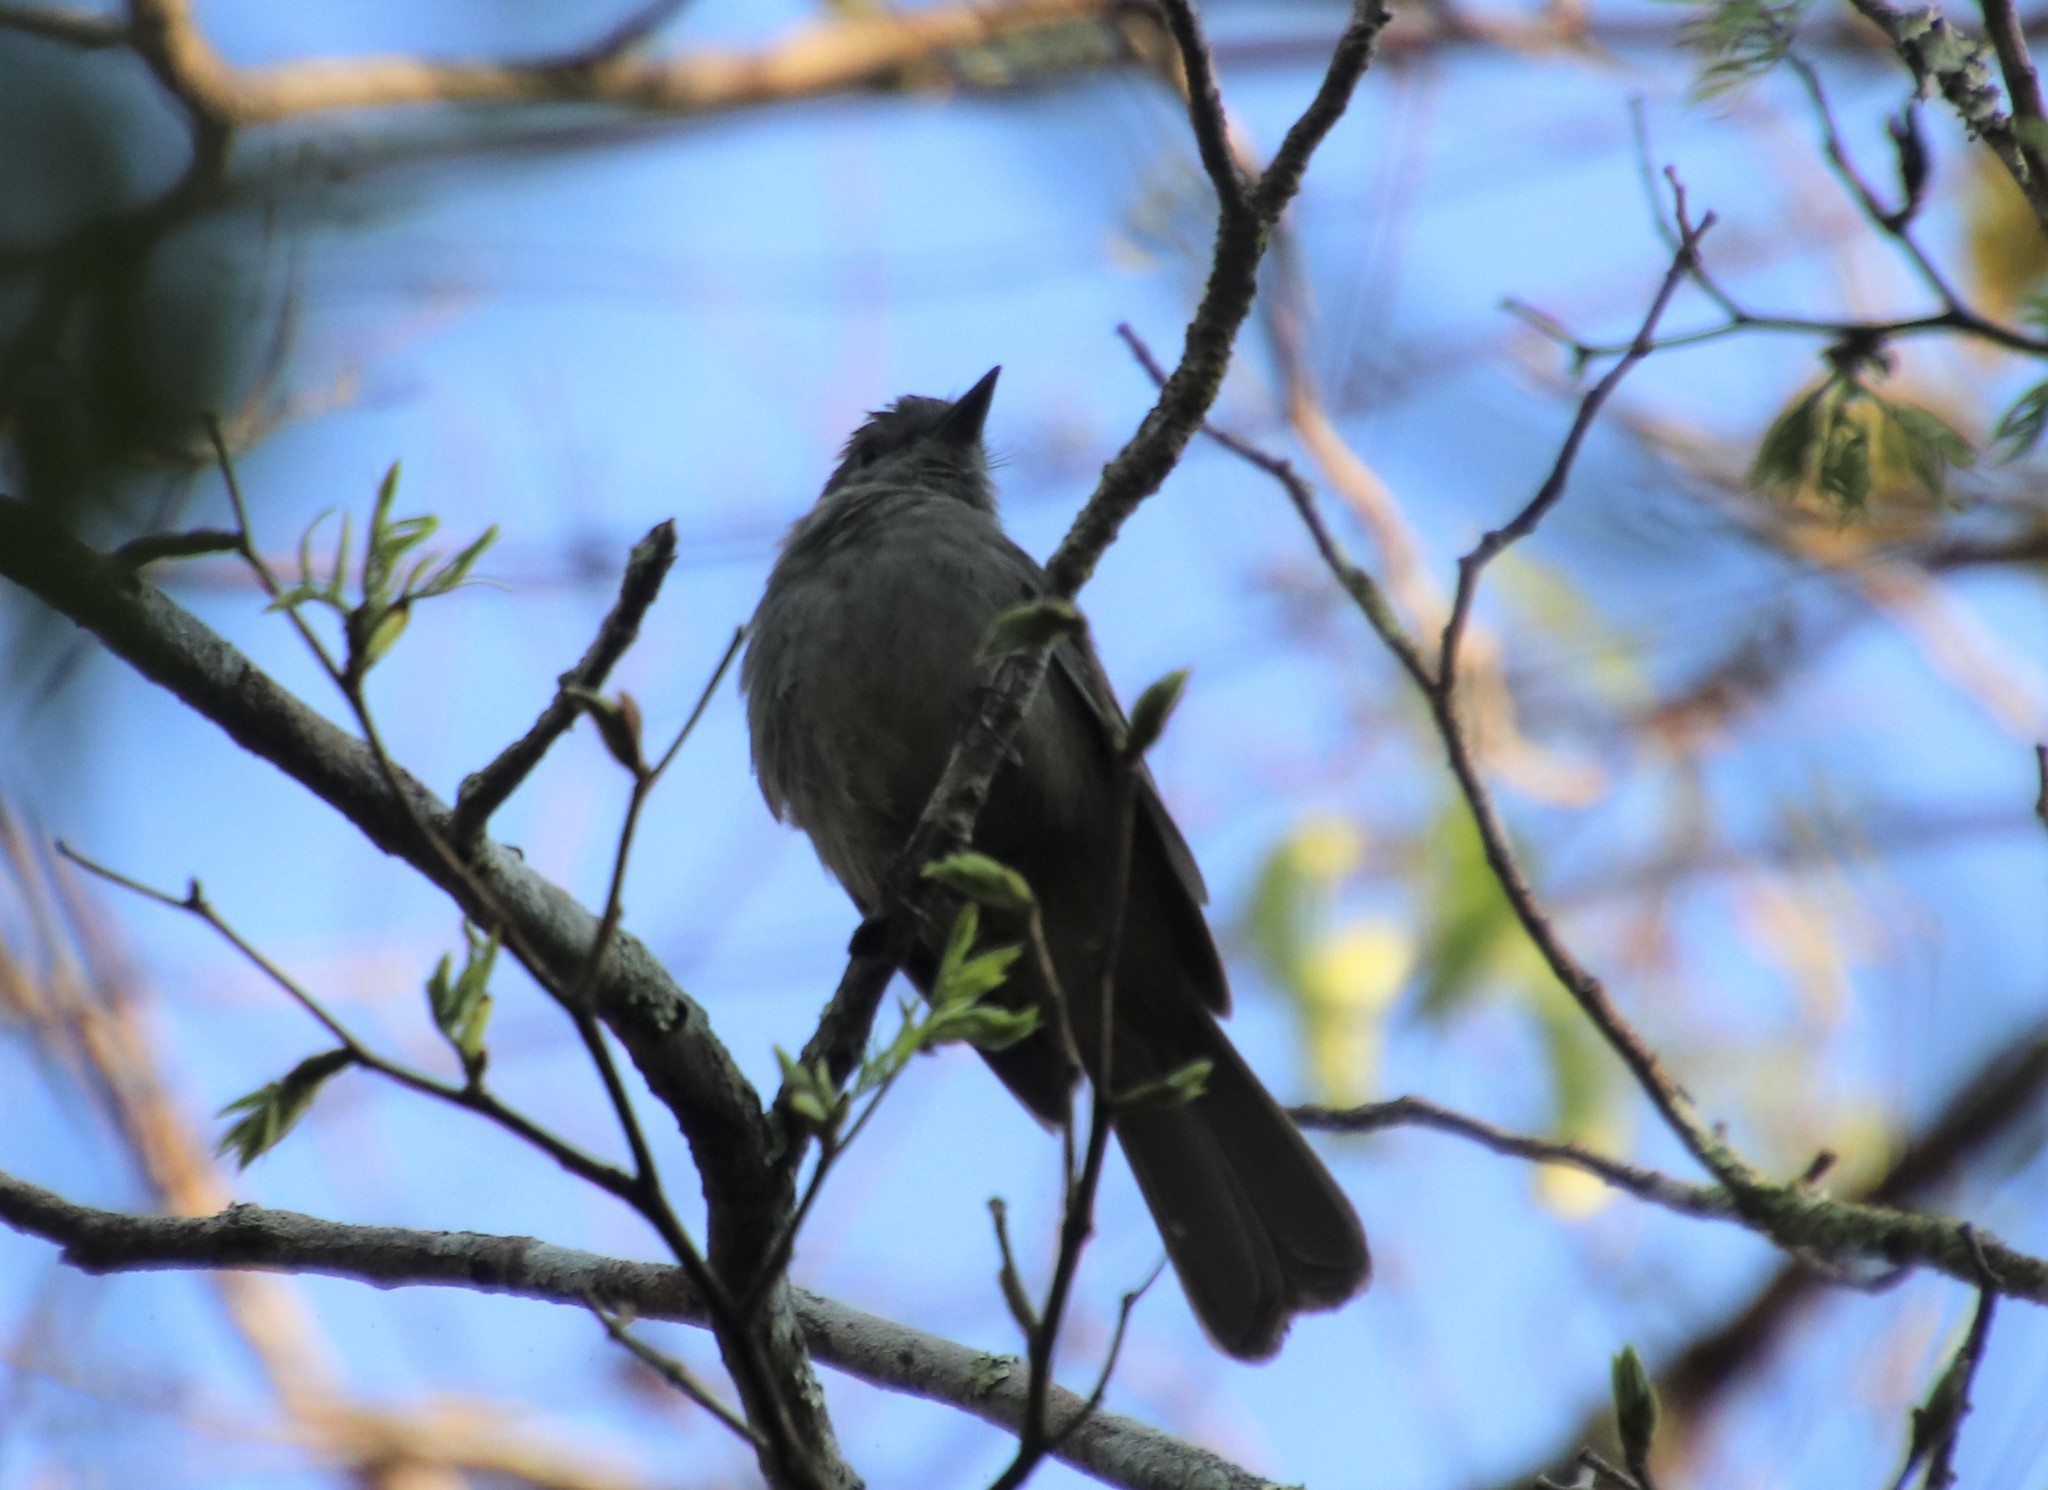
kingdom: Animalia
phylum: Chordata
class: Aves
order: Passeriformes
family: Tyrannidae
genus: Rhytipterna
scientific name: Rhytipterna simplex
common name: Greyish mourner
